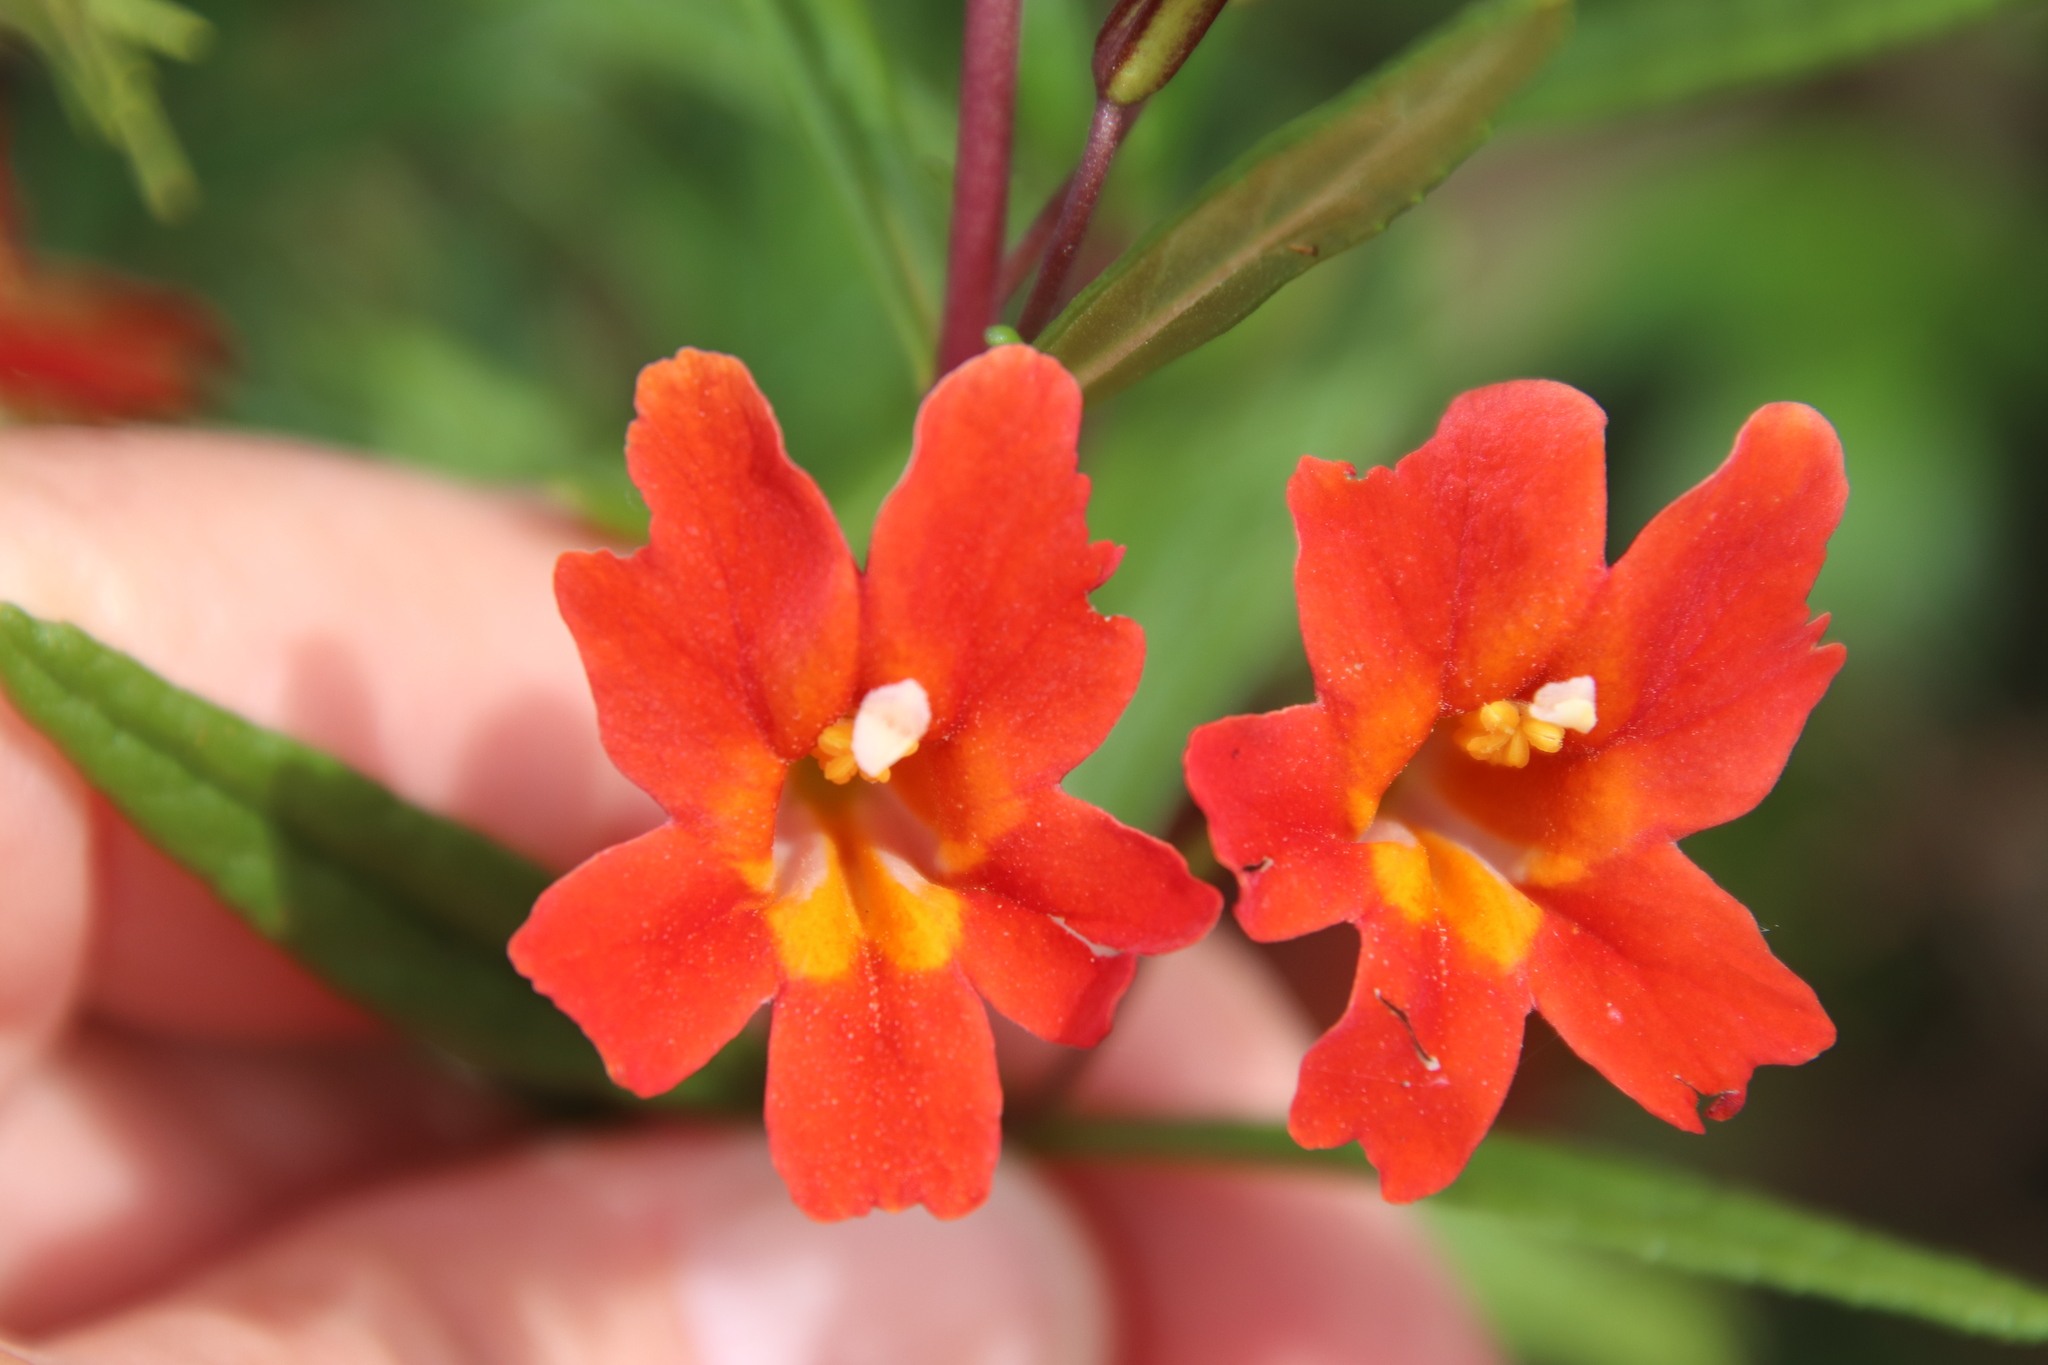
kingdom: Plantae
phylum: Tracheophyta
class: Magnoliopsida
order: Lamiales
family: Phrymaceae
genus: Diplacus
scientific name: Diplacus puniceus
